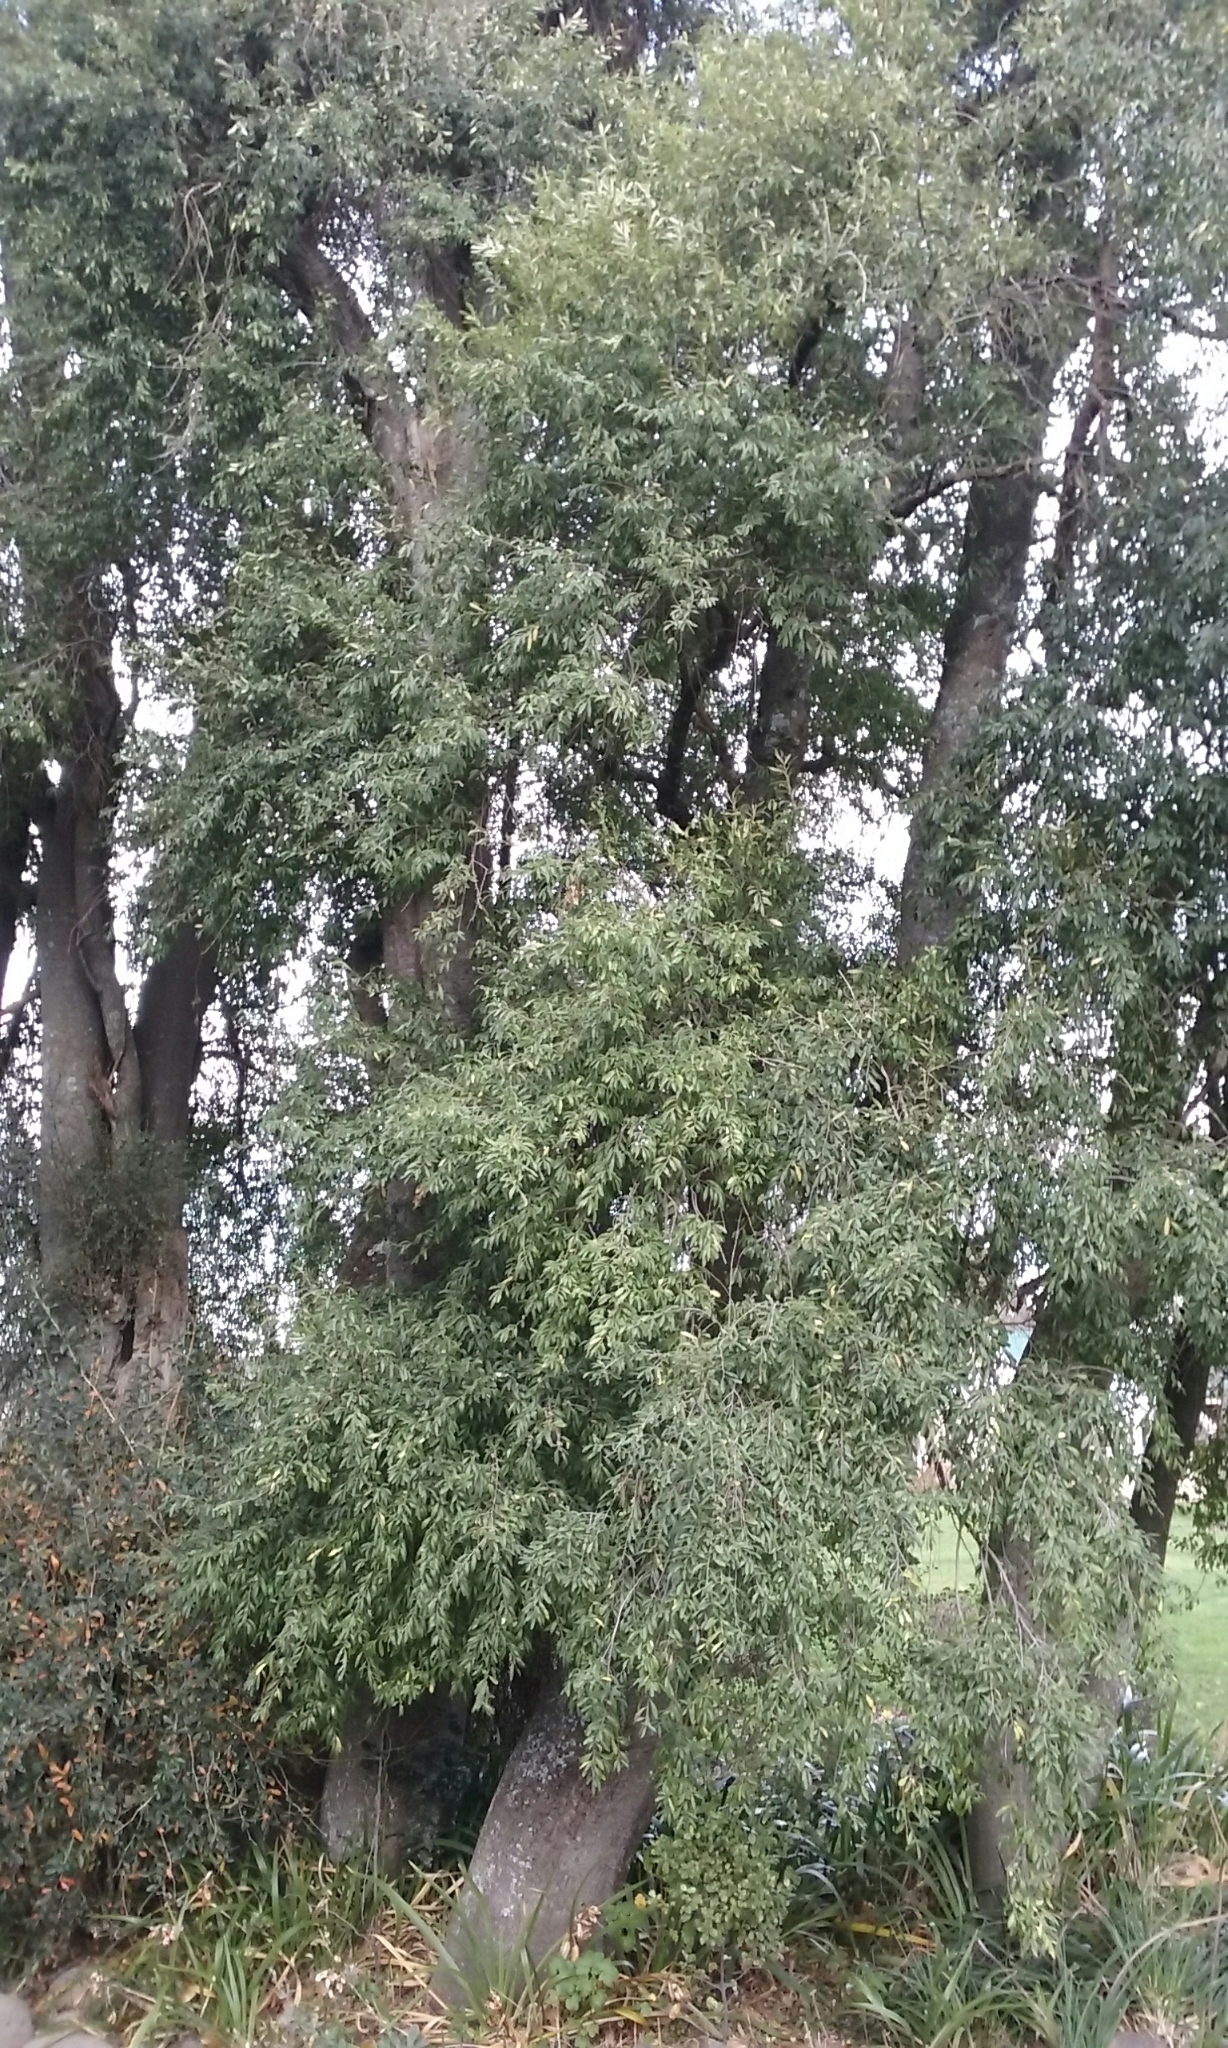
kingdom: Plantae
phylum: Tracheophyta
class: Magnoliopsida
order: Malvales
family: Malvaceae
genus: Hoheria
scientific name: Hoheria angustifolia
